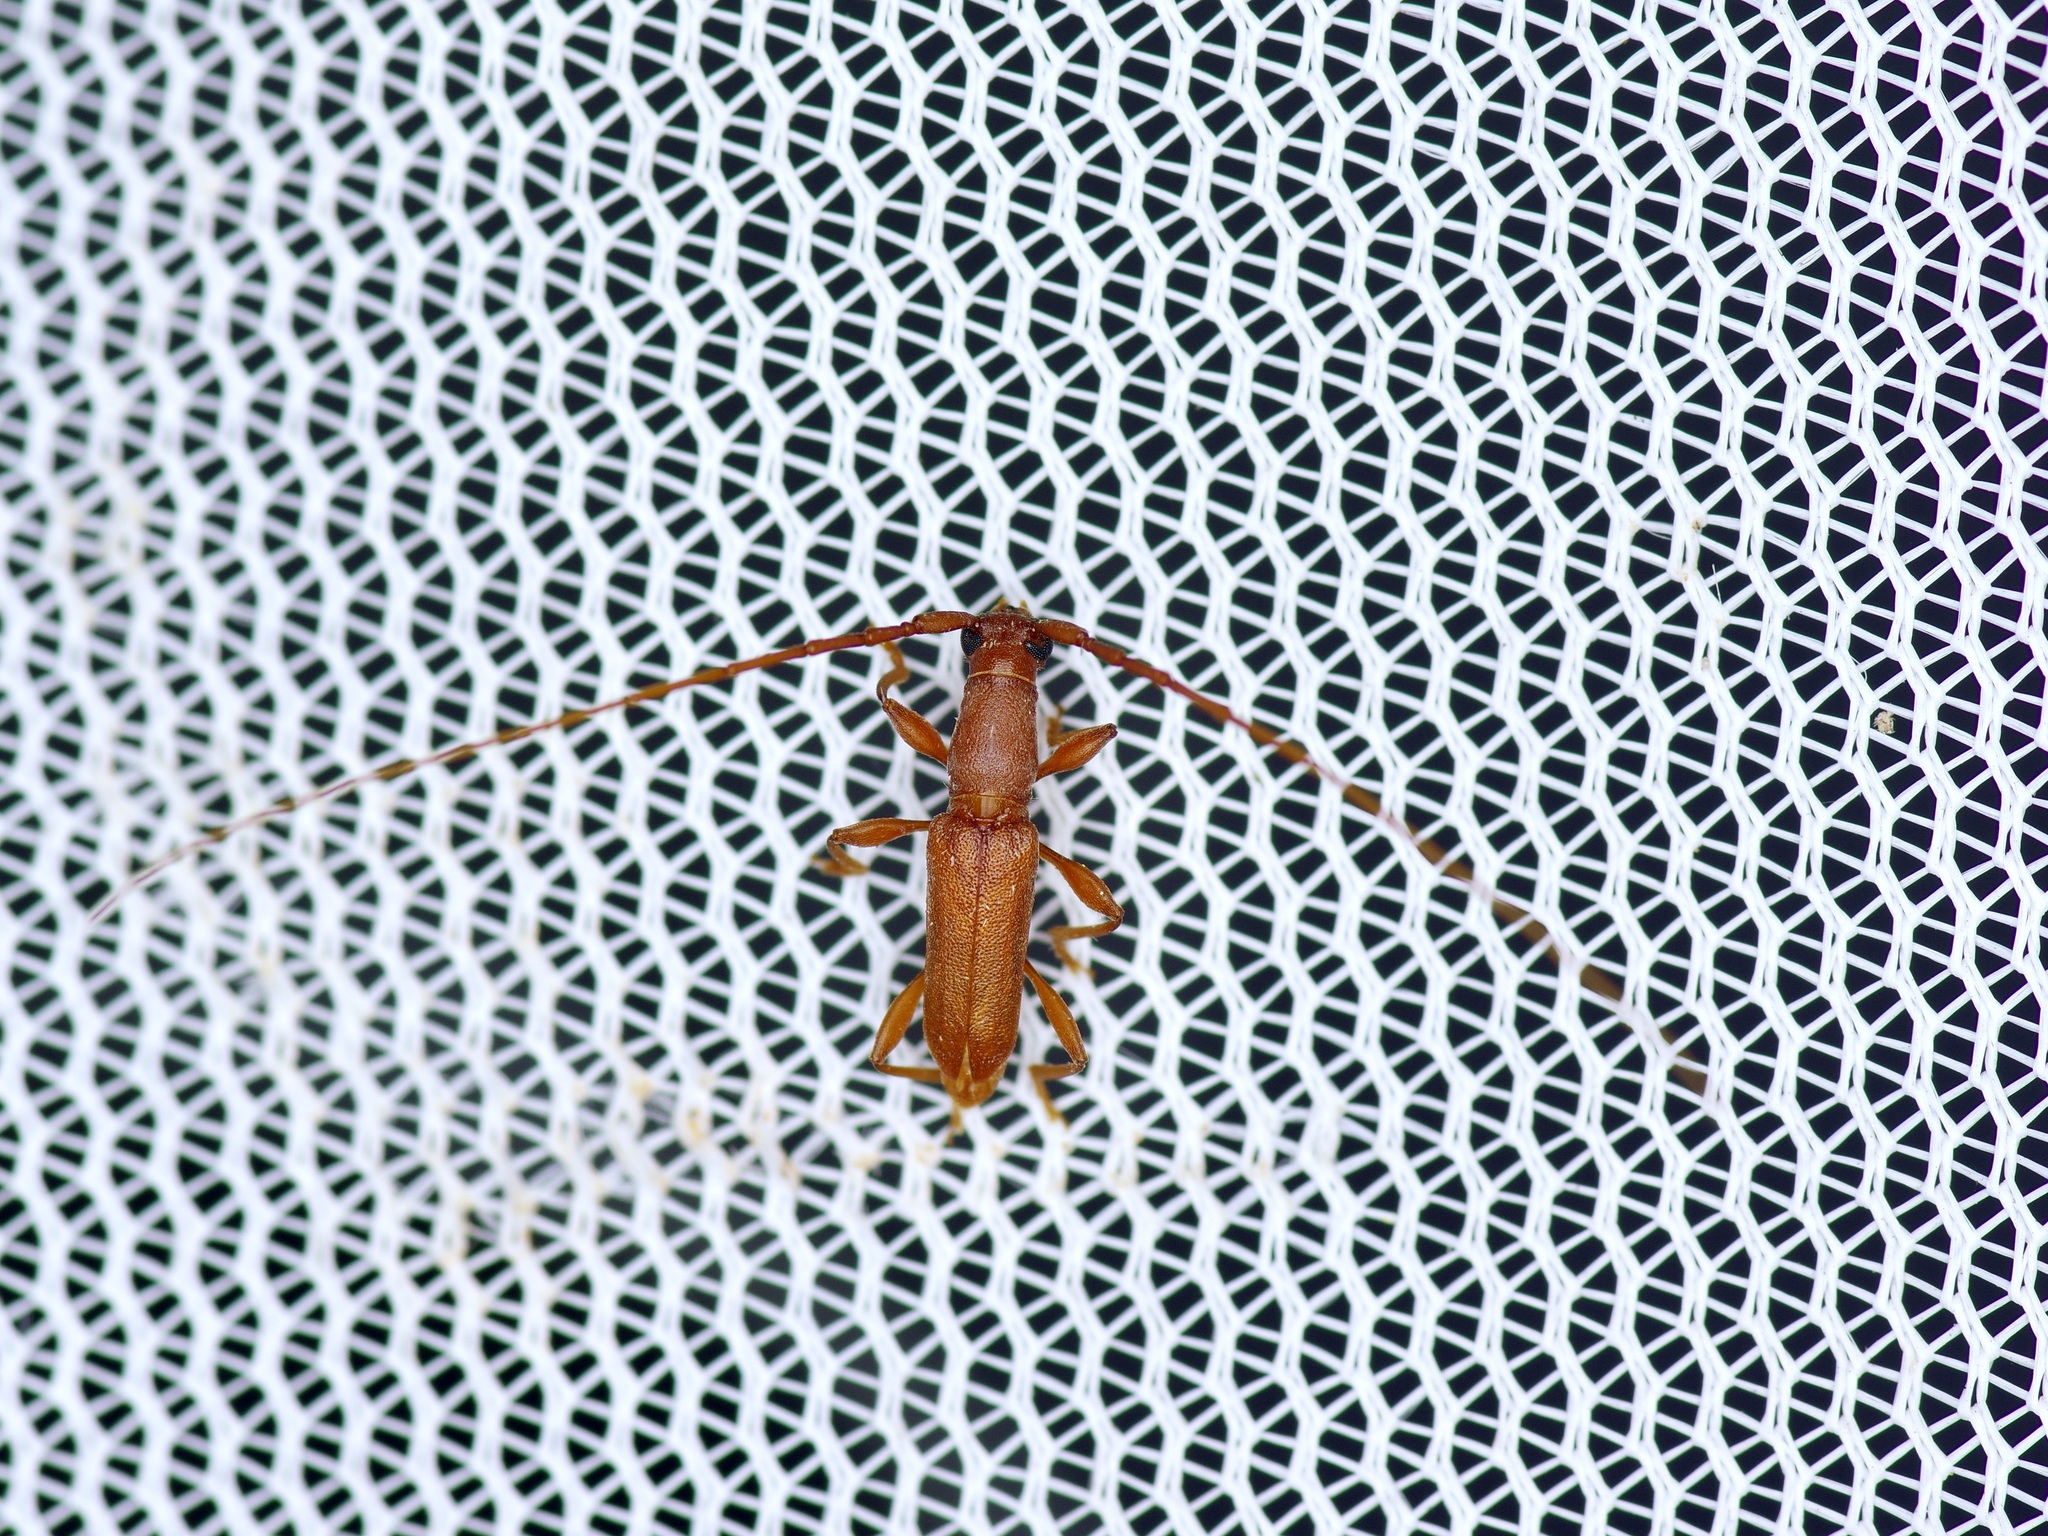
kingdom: Animalia
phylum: Arthropoda
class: Insecta
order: Coleoptera
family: Cerambycidae
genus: Hypexilis
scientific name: Hypexilis pallida
